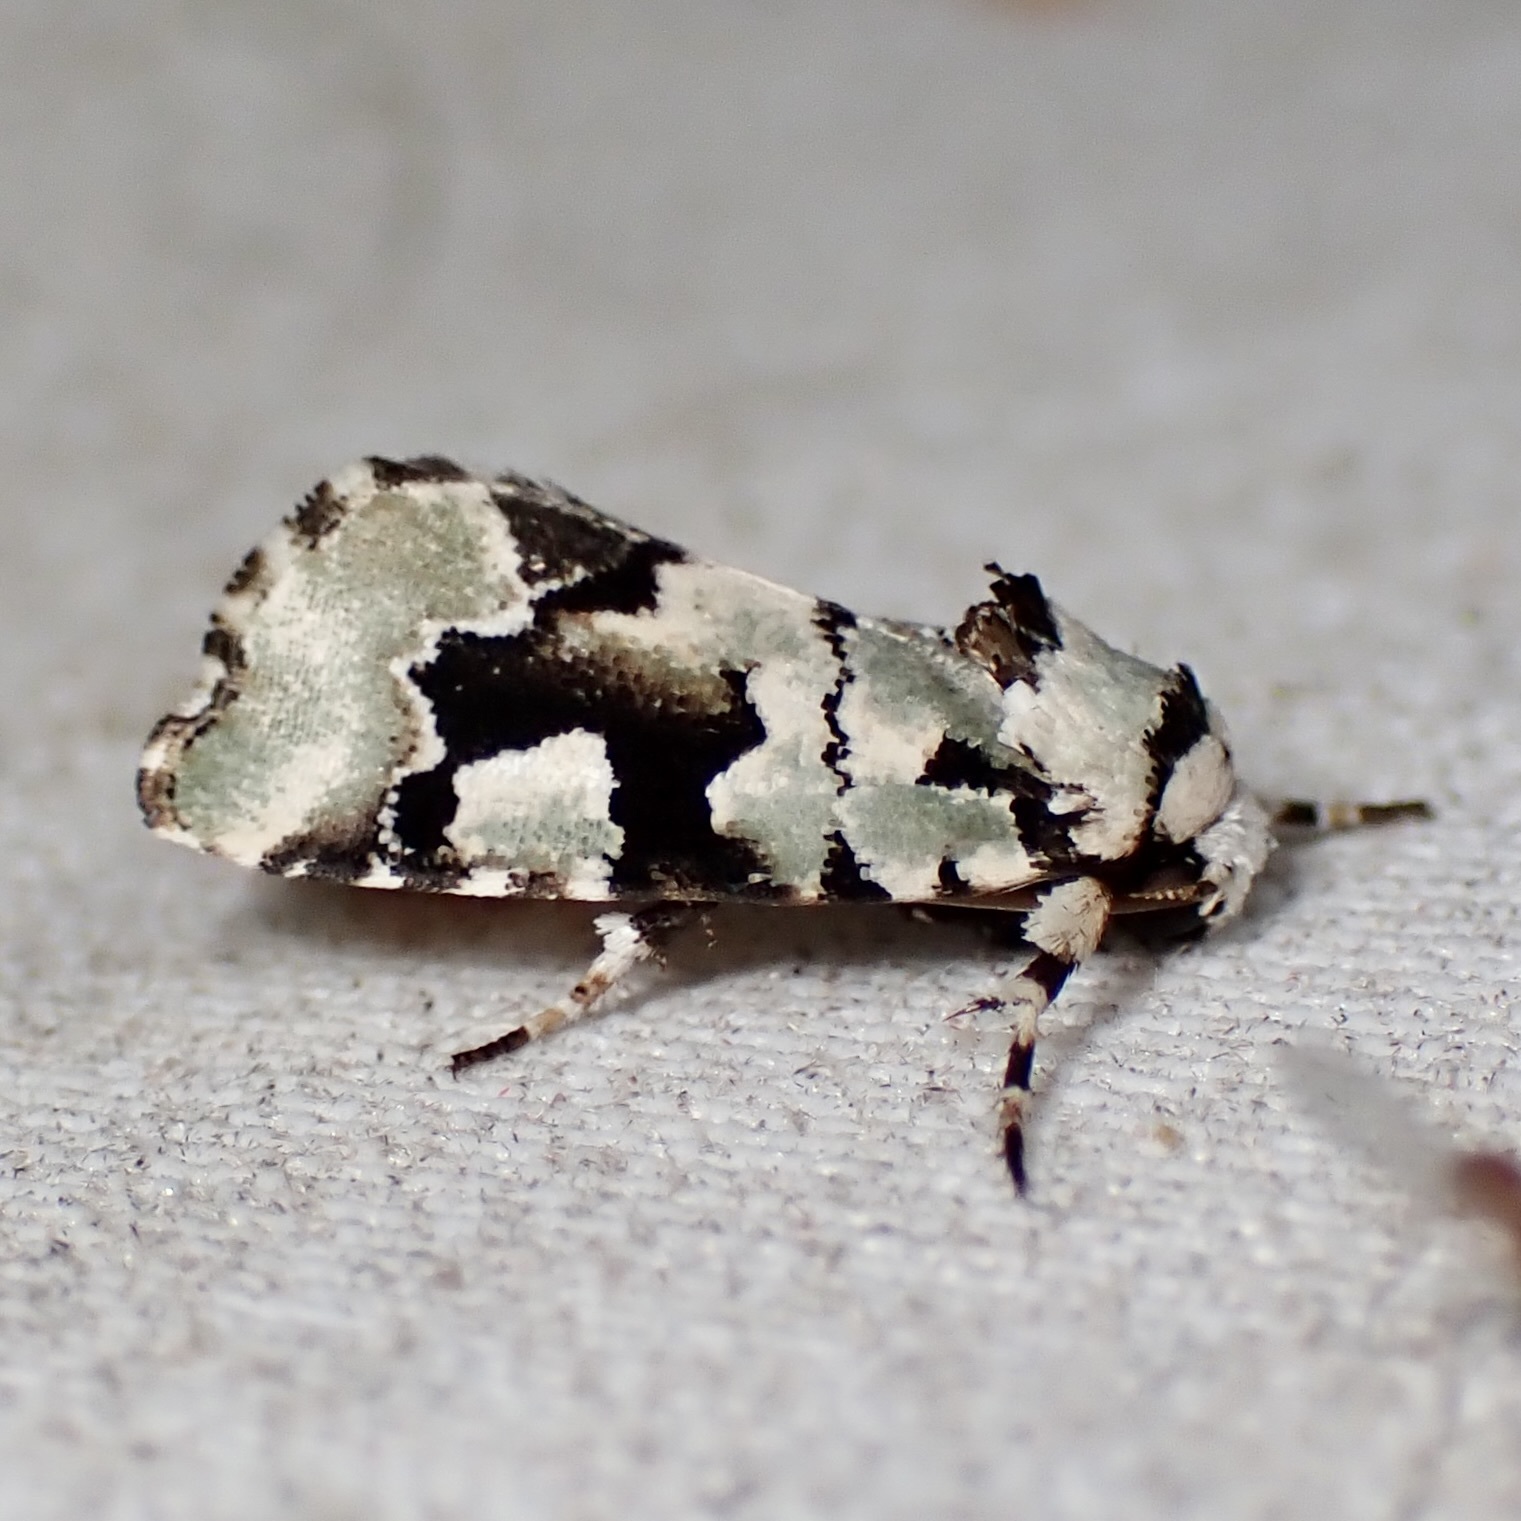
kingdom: Animalia
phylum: Arthropoda
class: Insecta
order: Lepidoptera
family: Noctuidae
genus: Emarginea
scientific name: Emarginea percara
